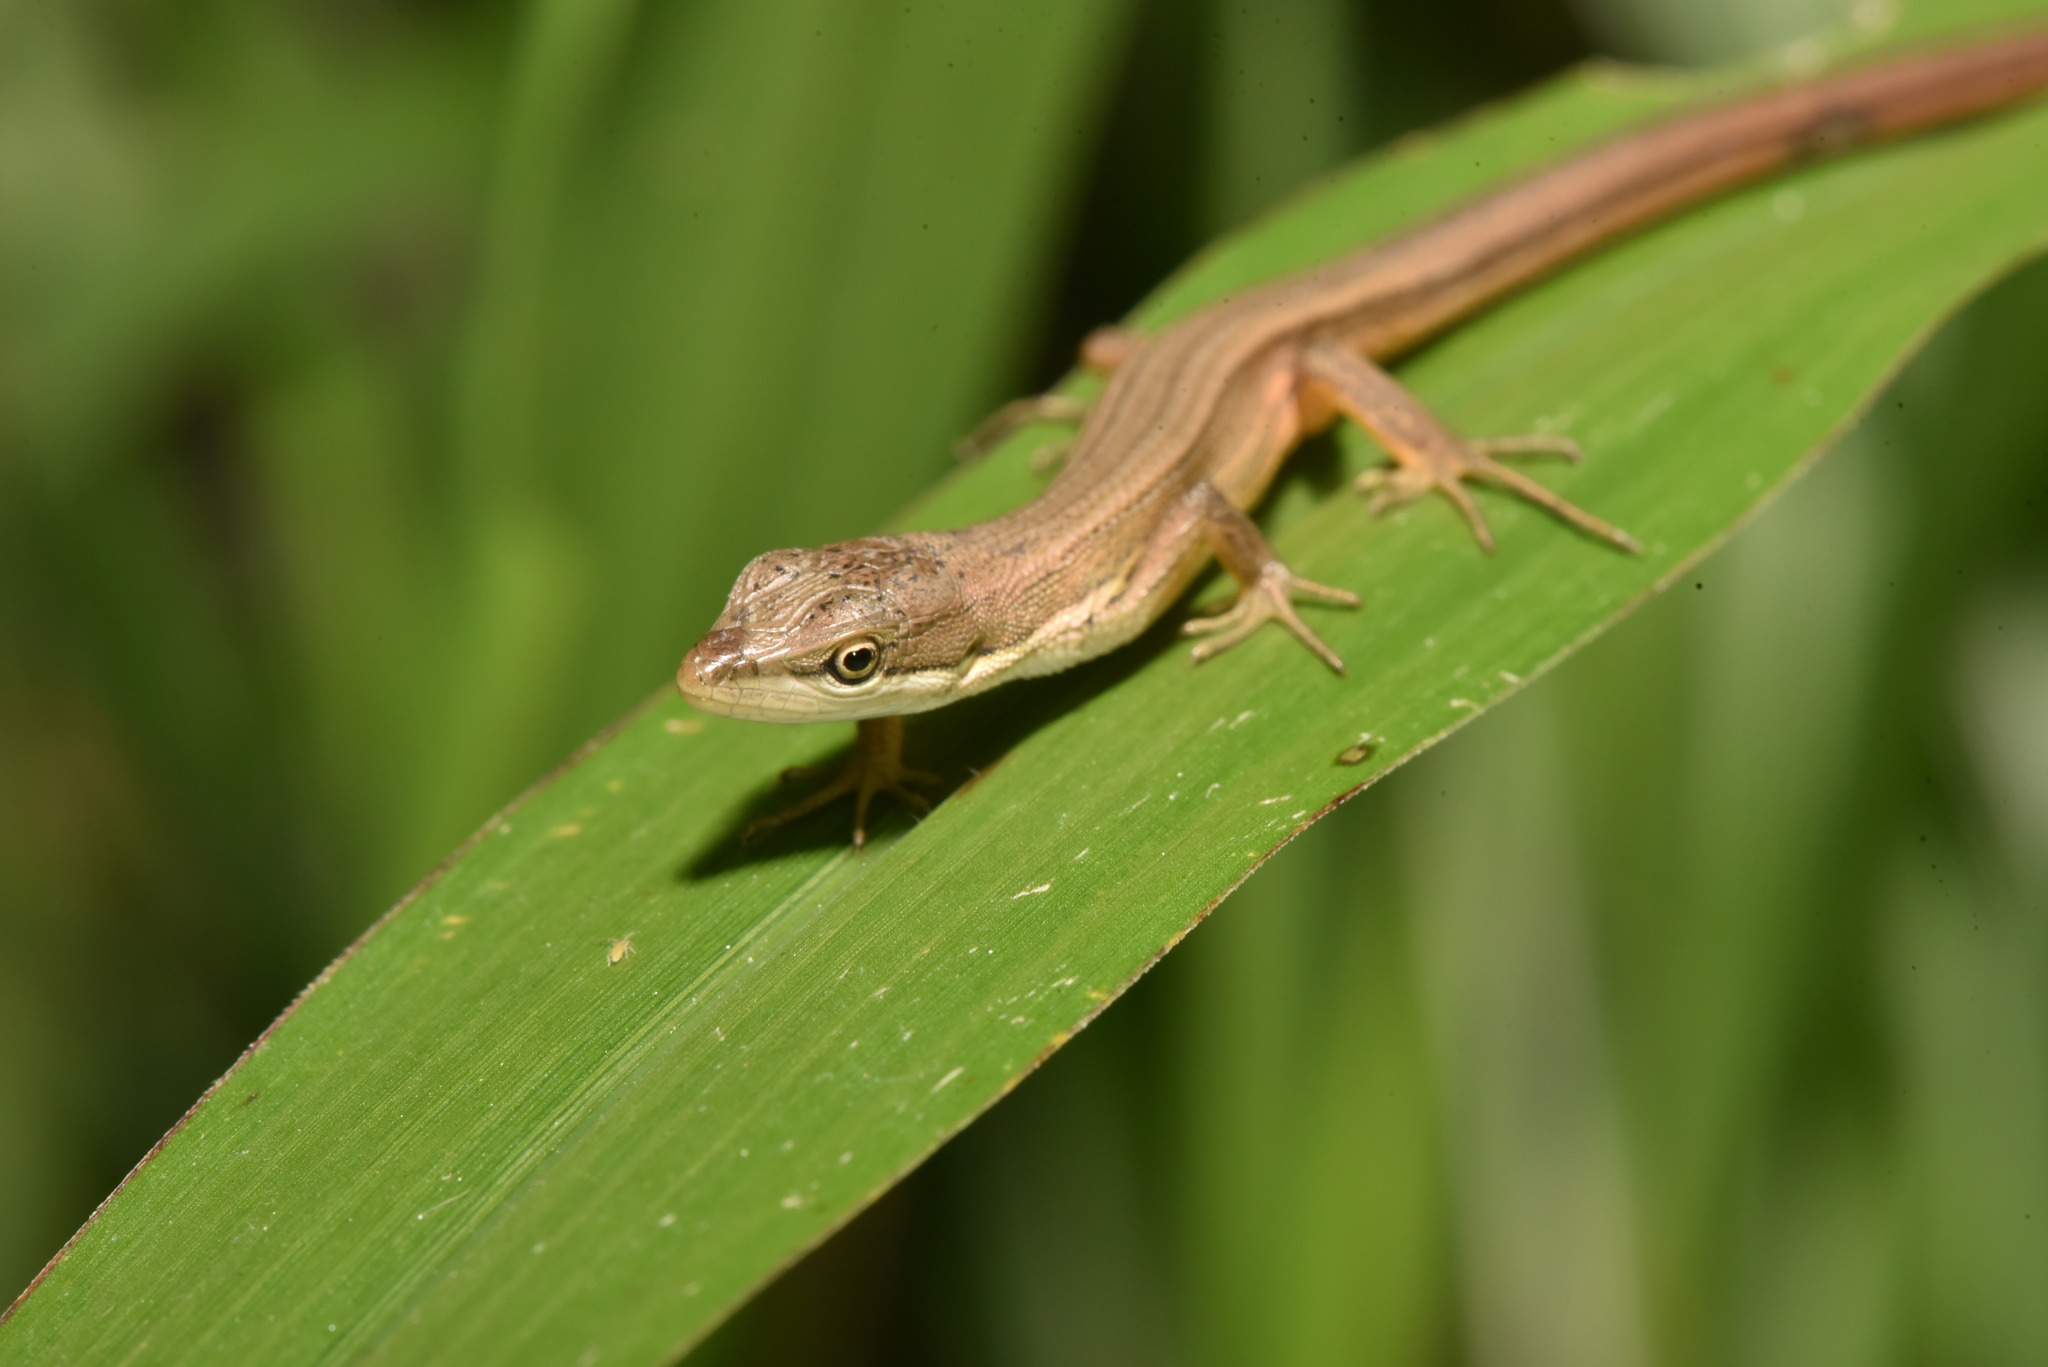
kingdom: Animalia
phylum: Chordata
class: Squamata
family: Lacertidae
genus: Takydromus
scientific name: Takydromus luyeanus
